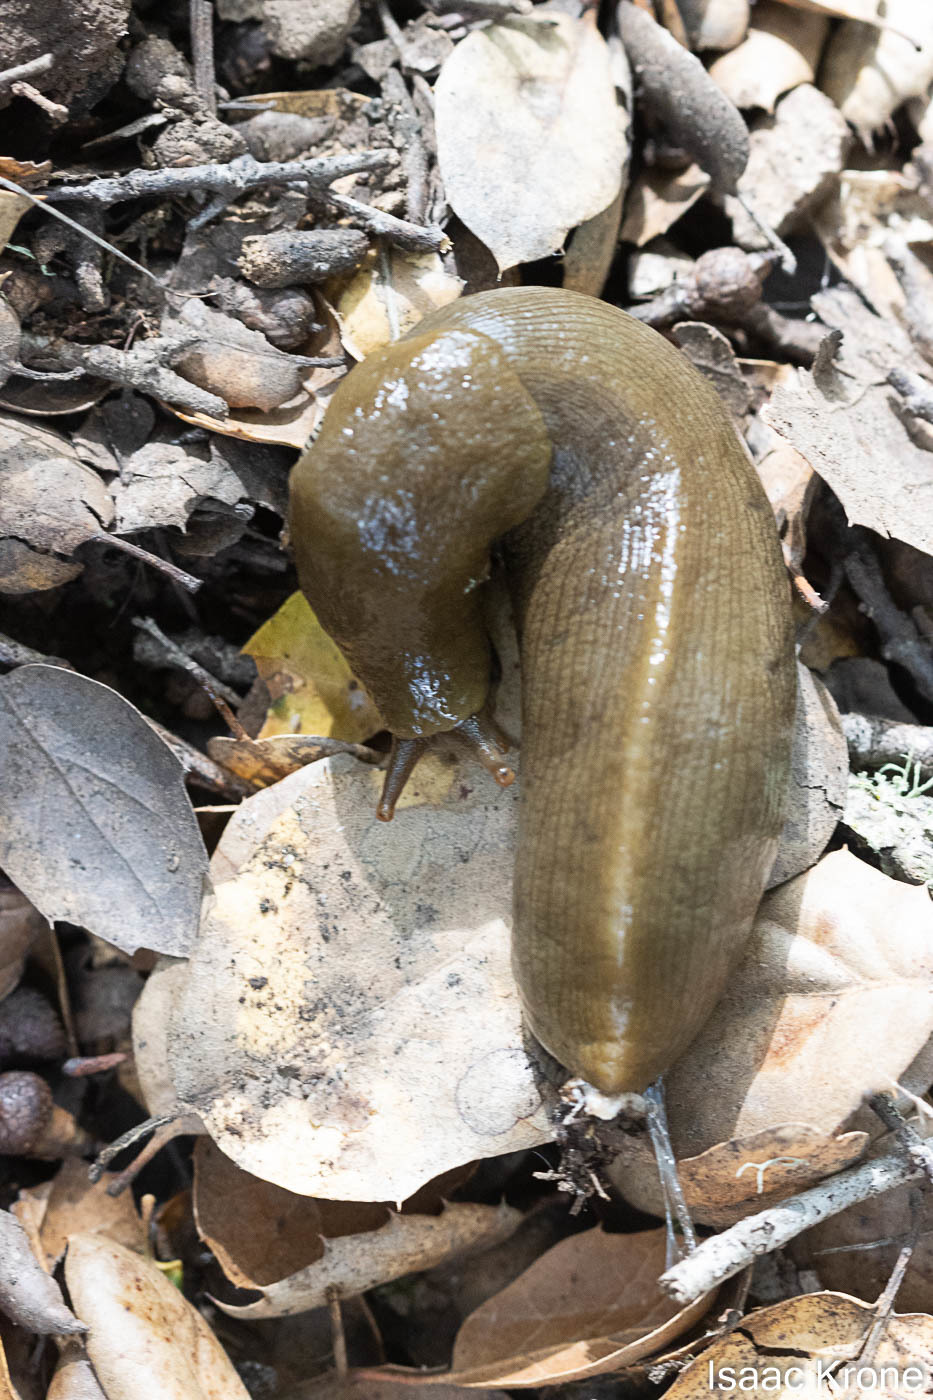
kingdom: Animalia
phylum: Mollusca
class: Gastropoda
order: Stylommatophora
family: Ariolimacidae
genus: Ariolimax
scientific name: Ariolimax buttoni
